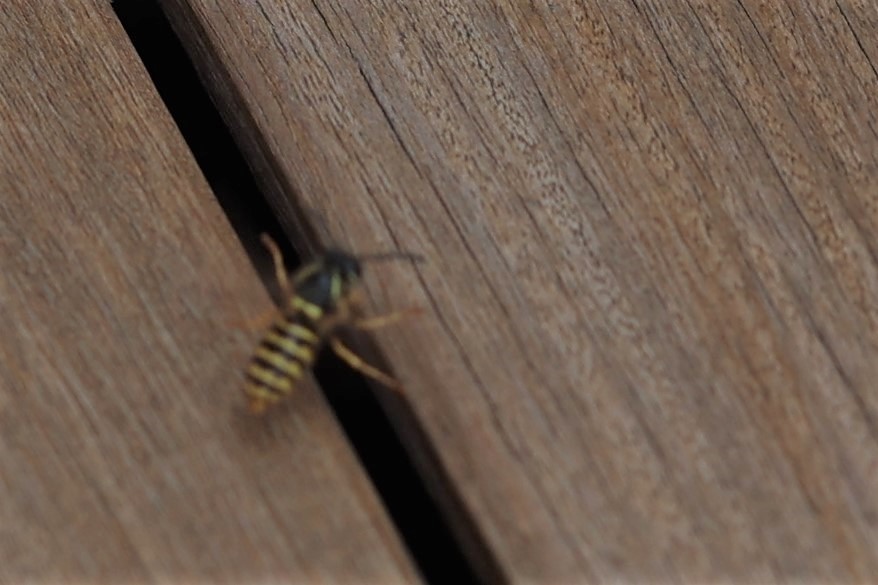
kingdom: Animalia
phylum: Arthropoda
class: Insecta
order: Hymenoptera
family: Vespidae
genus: Dolichovespula
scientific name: Dolichovespula saxonica
